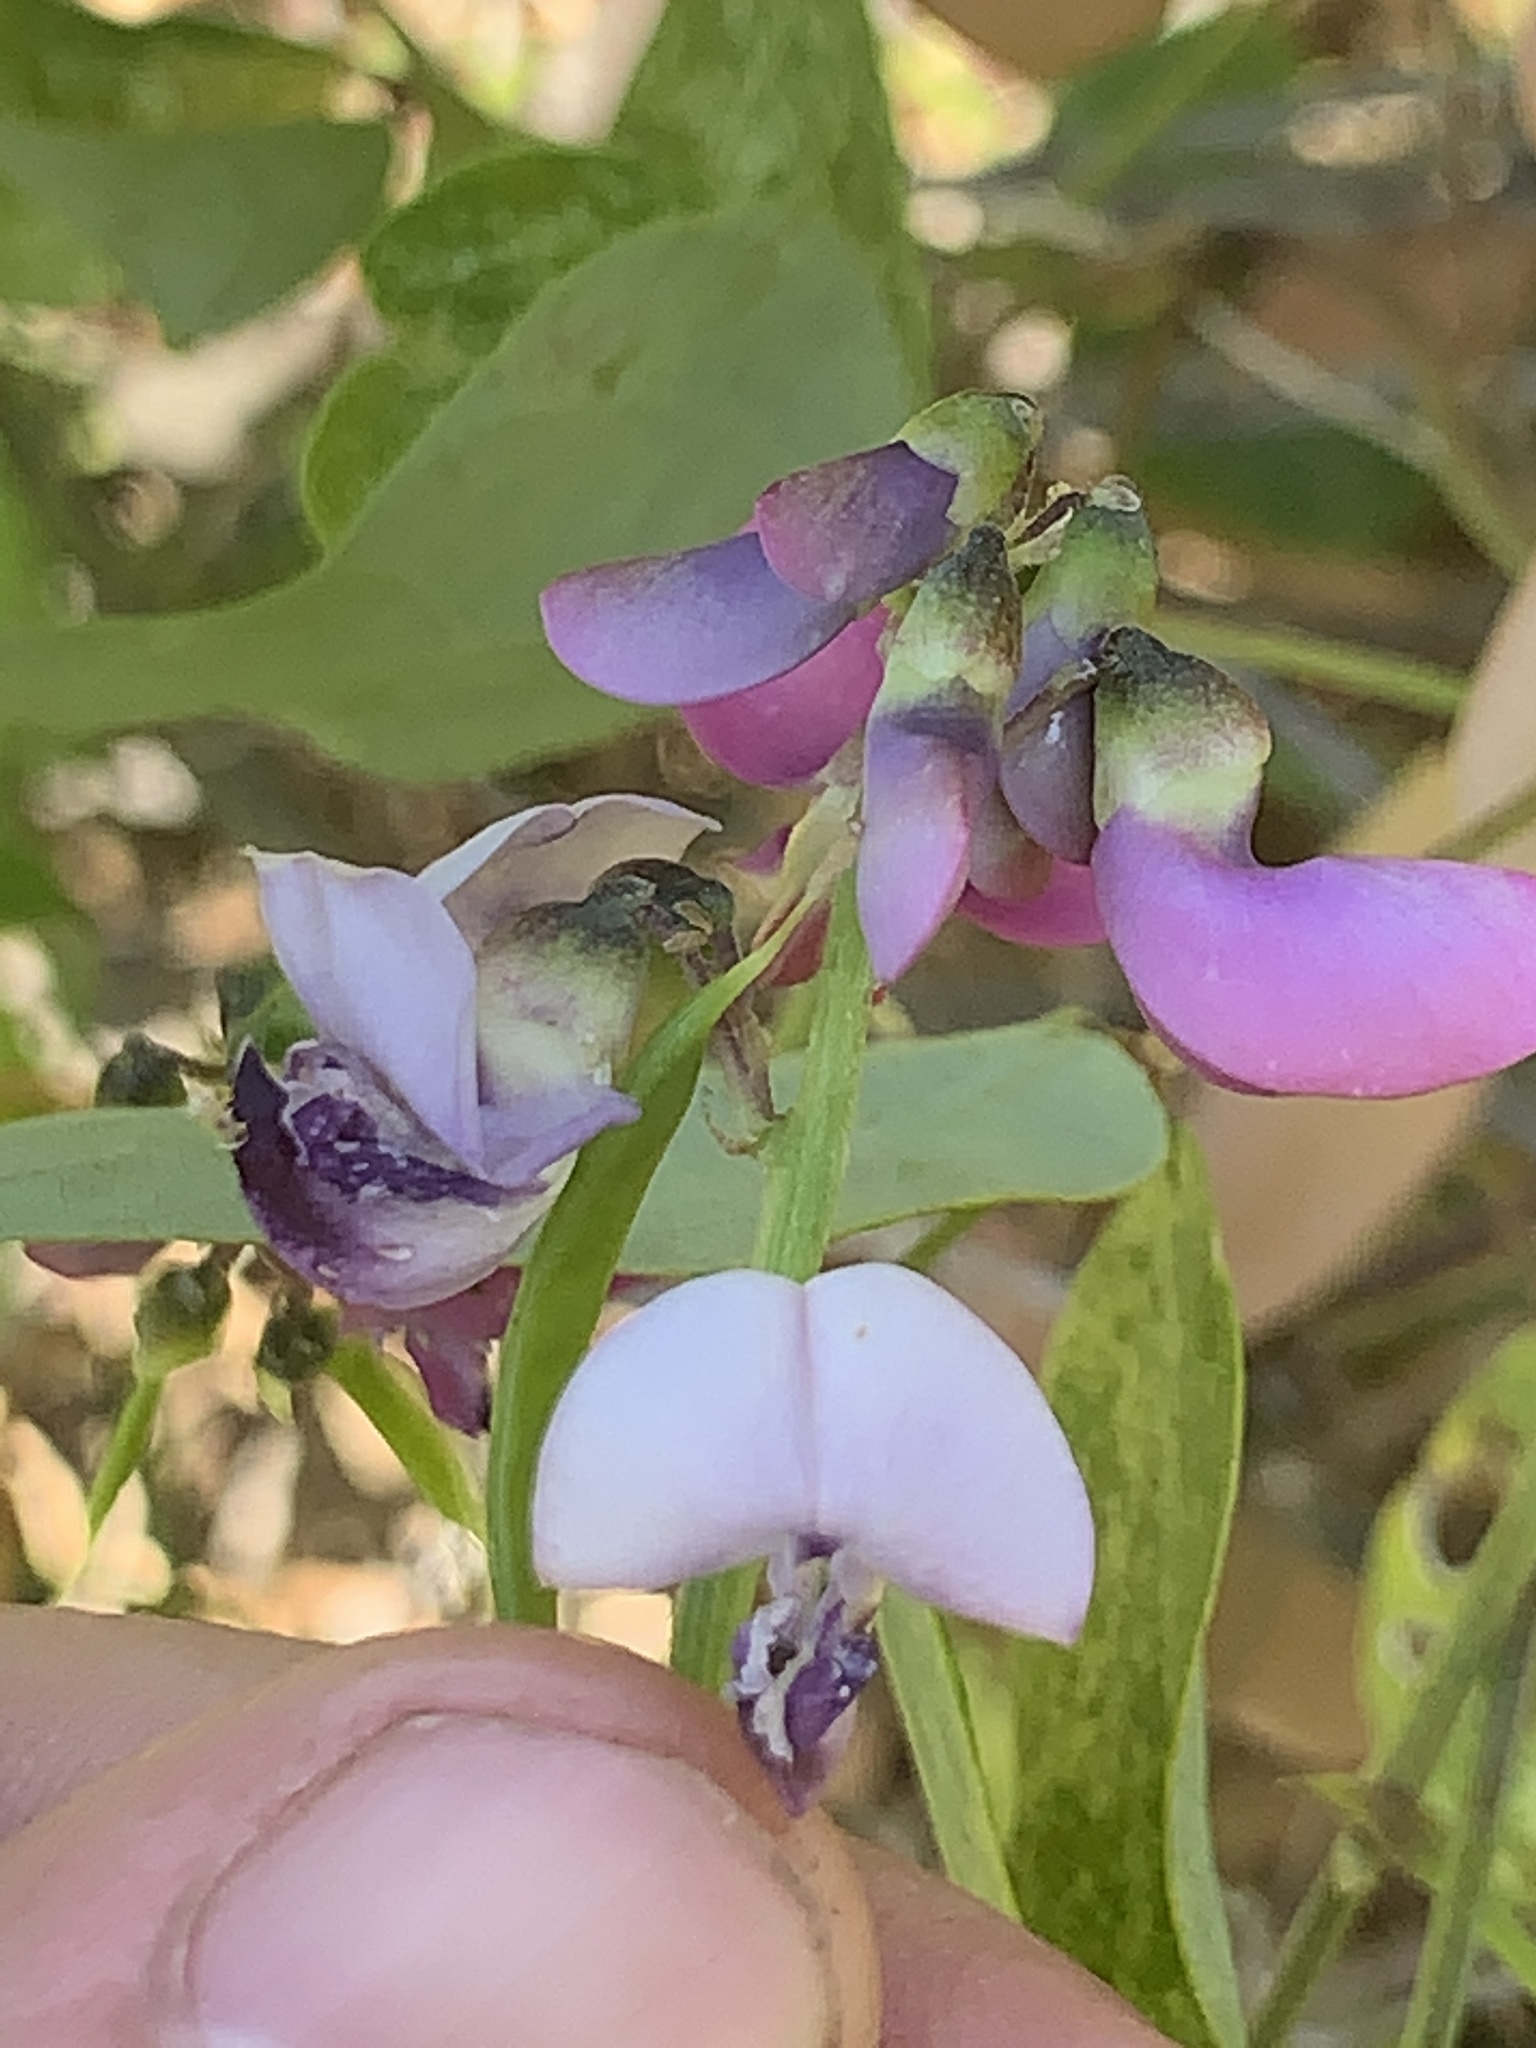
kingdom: Plantae
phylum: Tracheophyta
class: Magnoliopsida
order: Fabales
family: Fabaceae
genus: Dipogon
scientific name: Dipogon lignosus
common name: Okie bean
